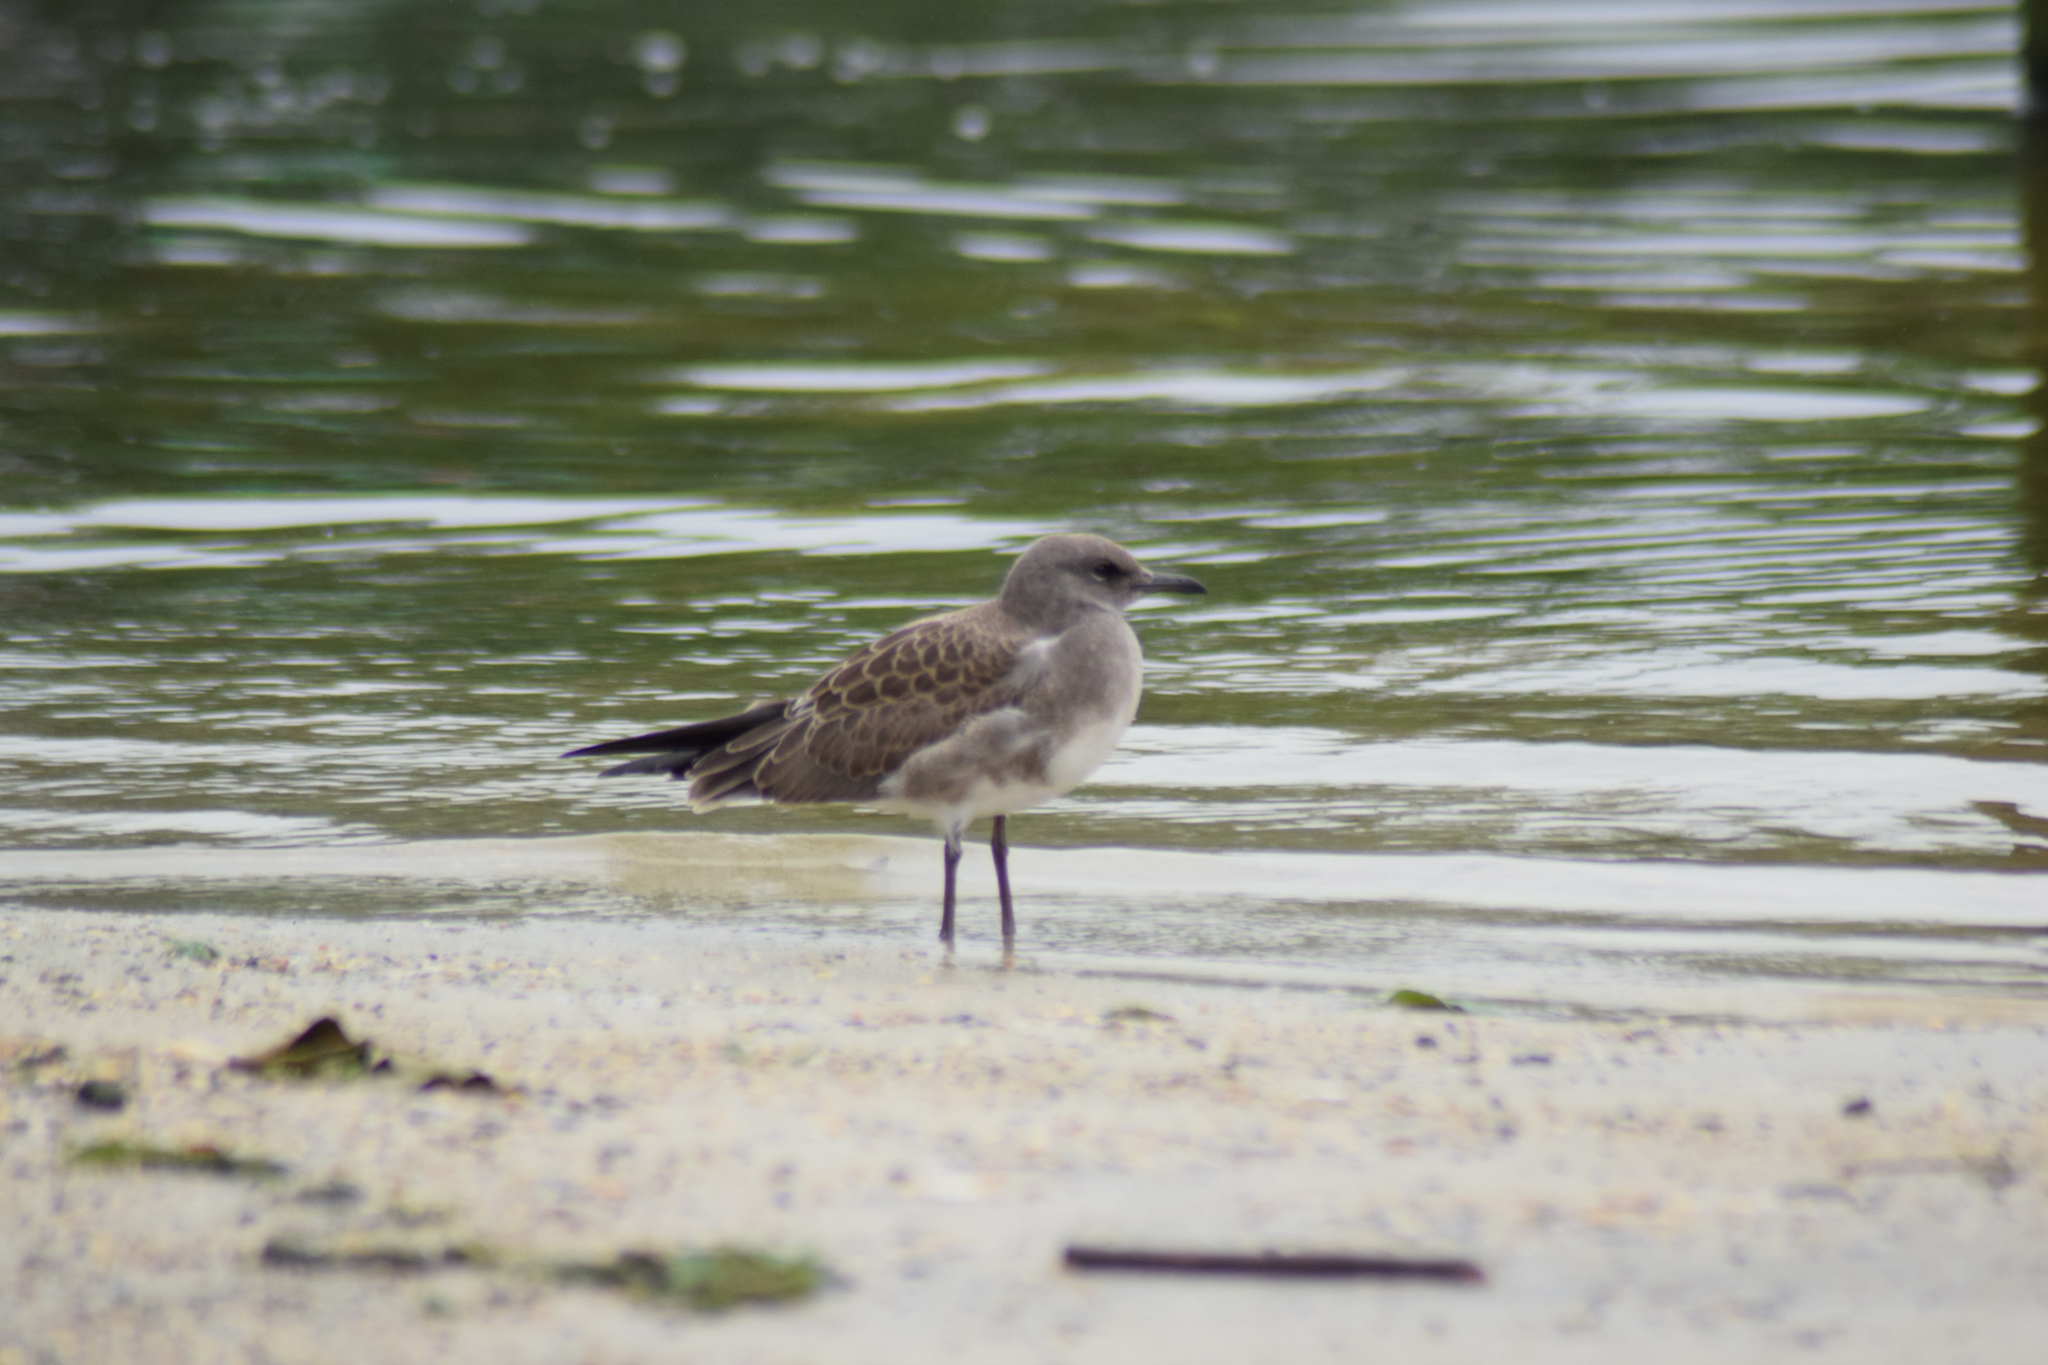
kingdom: Animalia
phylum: Chordata
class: Aves
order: Charadriiformes
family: Laridae
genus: Leucophaeus
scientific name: Leucophaeus atricilla
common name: Laughing gull
